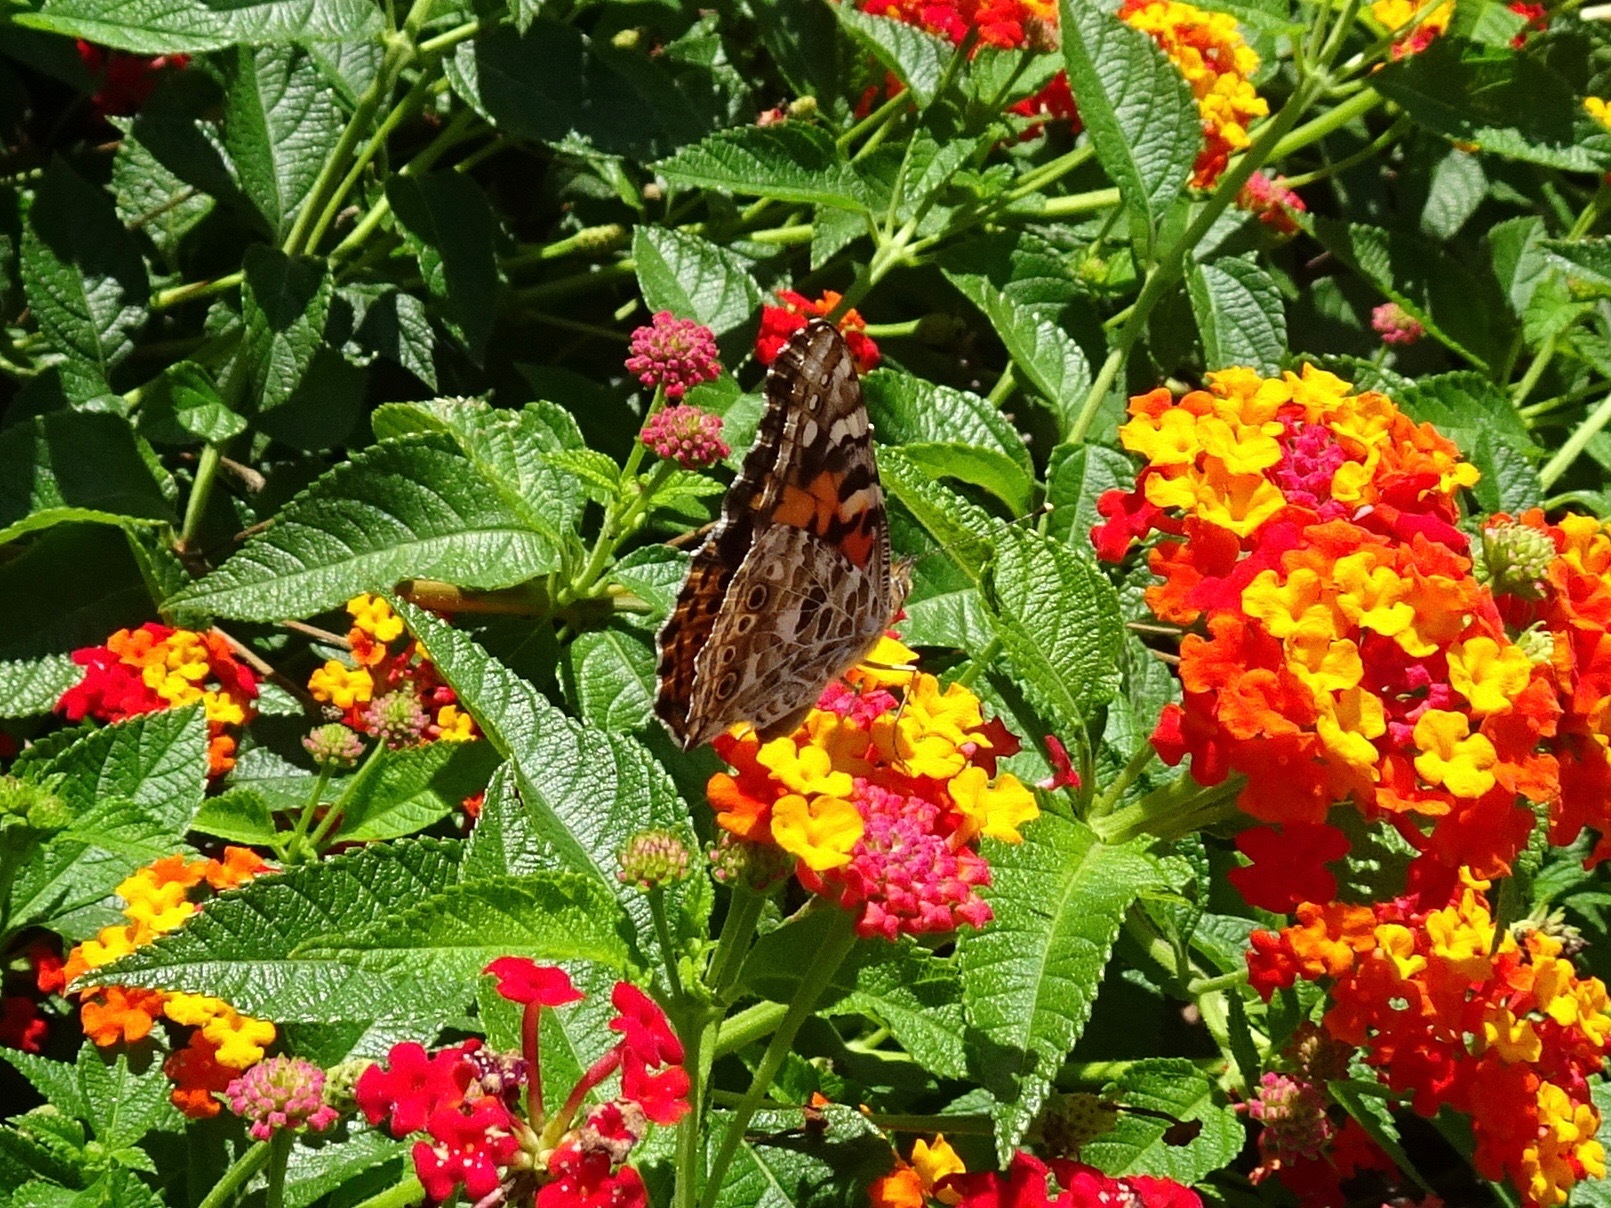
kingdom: Animalia
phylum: Arthropoda
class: Insecta
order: Lepidoptera
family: Nymphalidae
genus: Vanessa
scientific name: Vanessa cardui
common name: Painted lady
